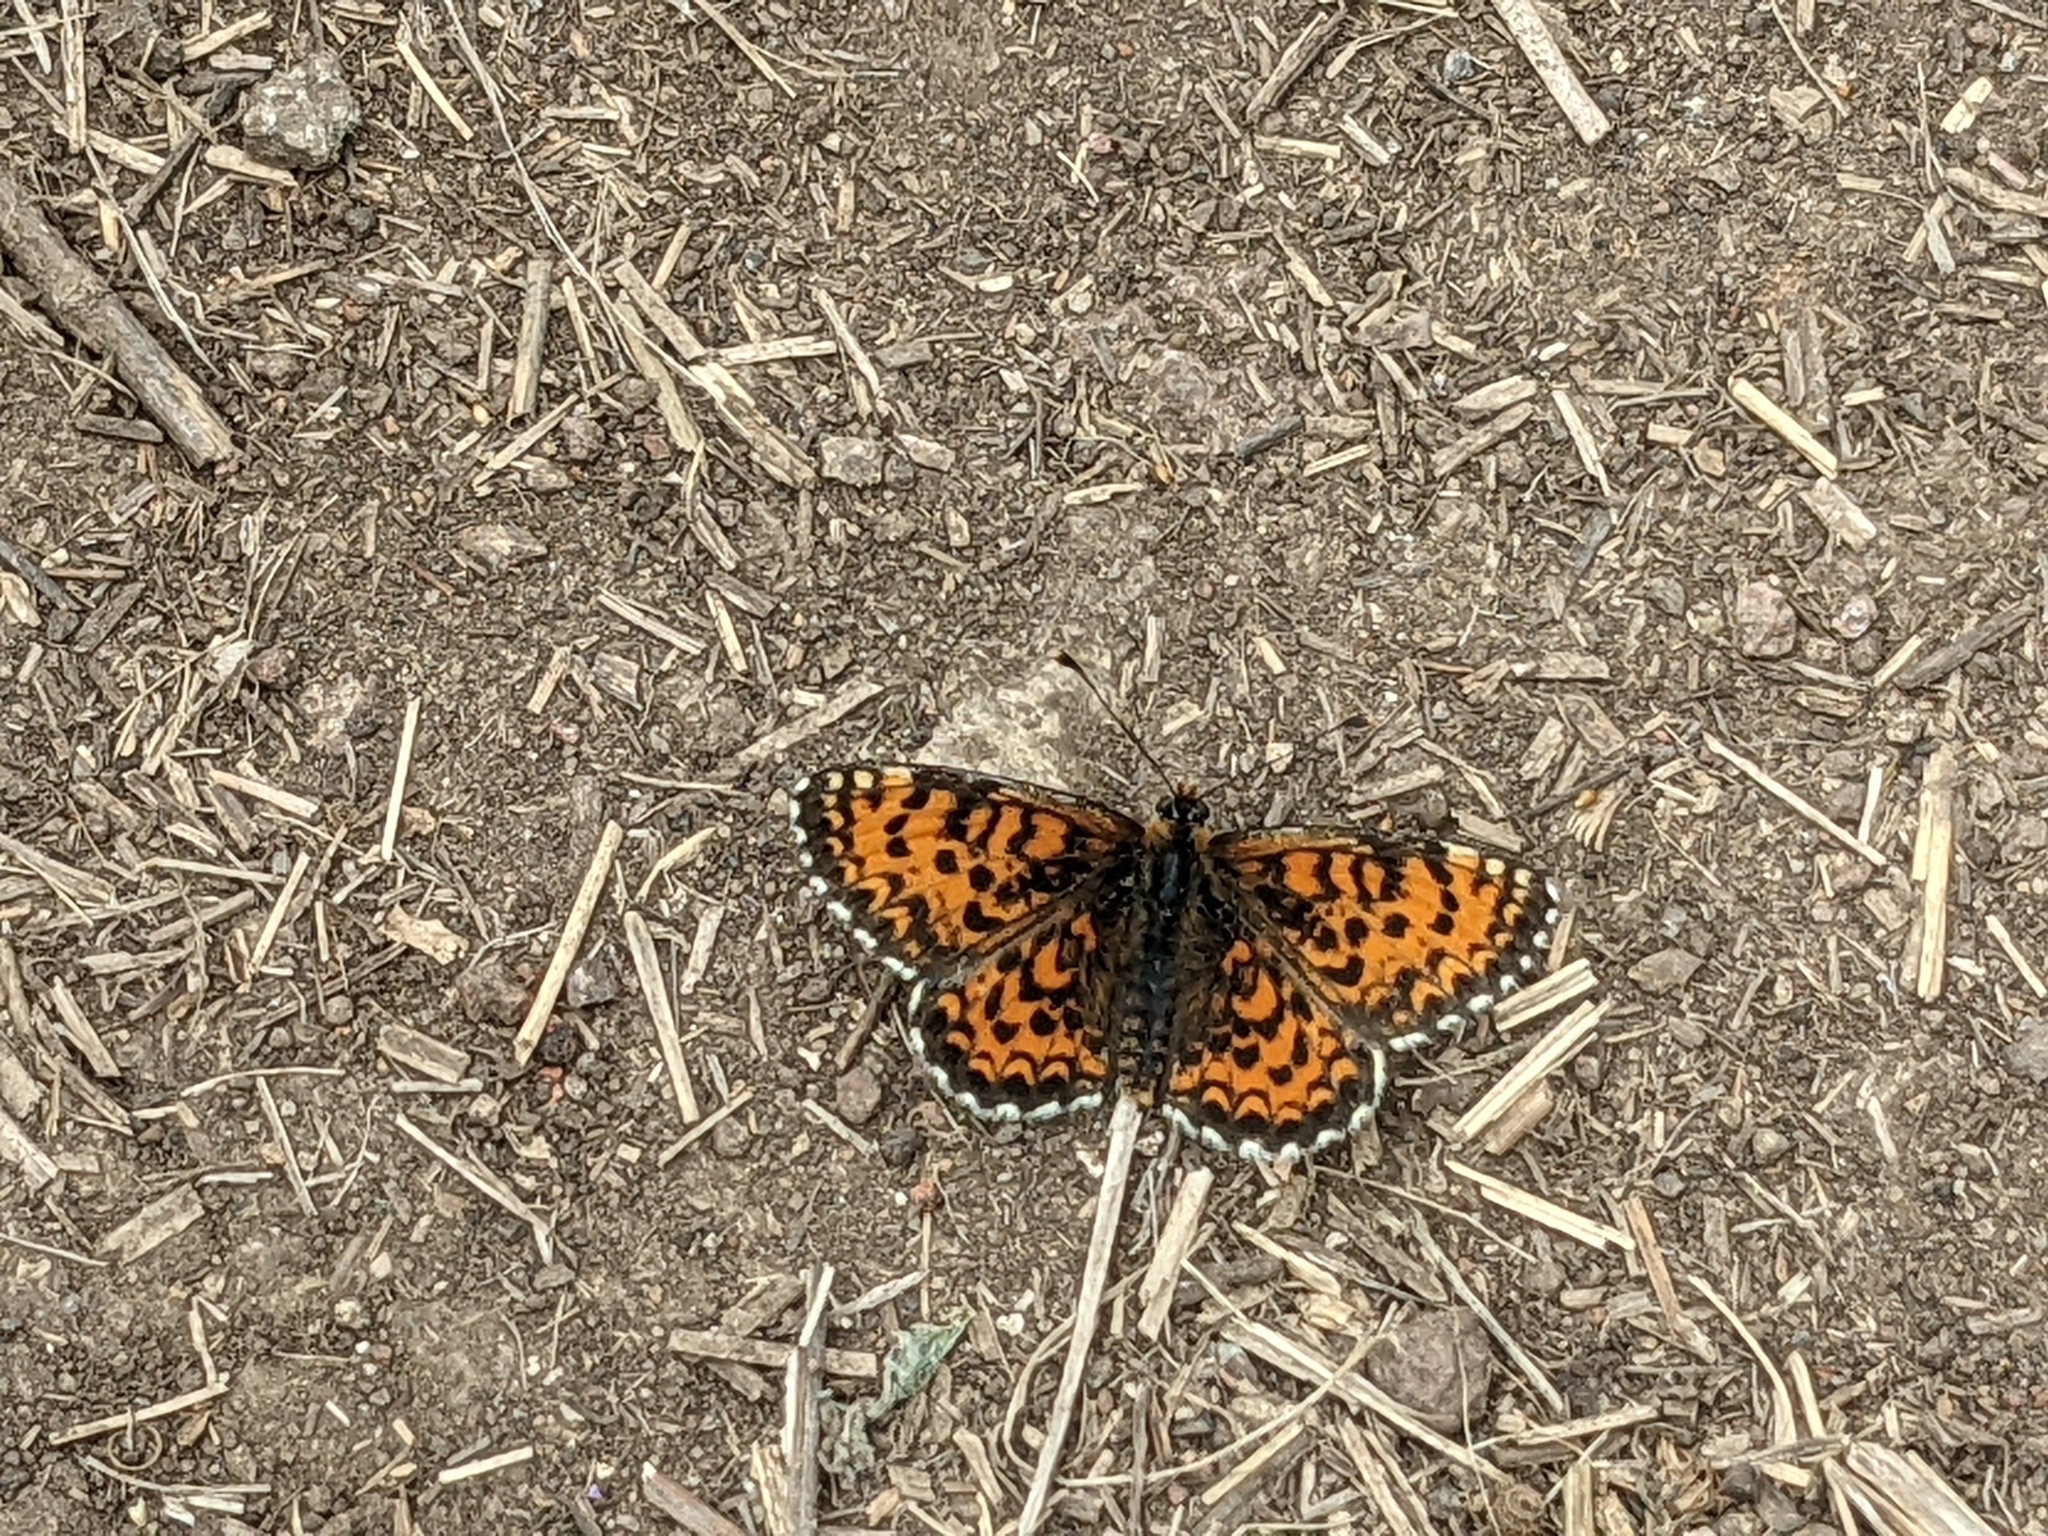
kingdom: Animalia
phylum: Arthropoda
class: Insecta
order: Lepidoptera
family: Nymphalidae
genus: Melitaea
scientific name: Melitaea trivia
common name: Lesser spotted fritillary
